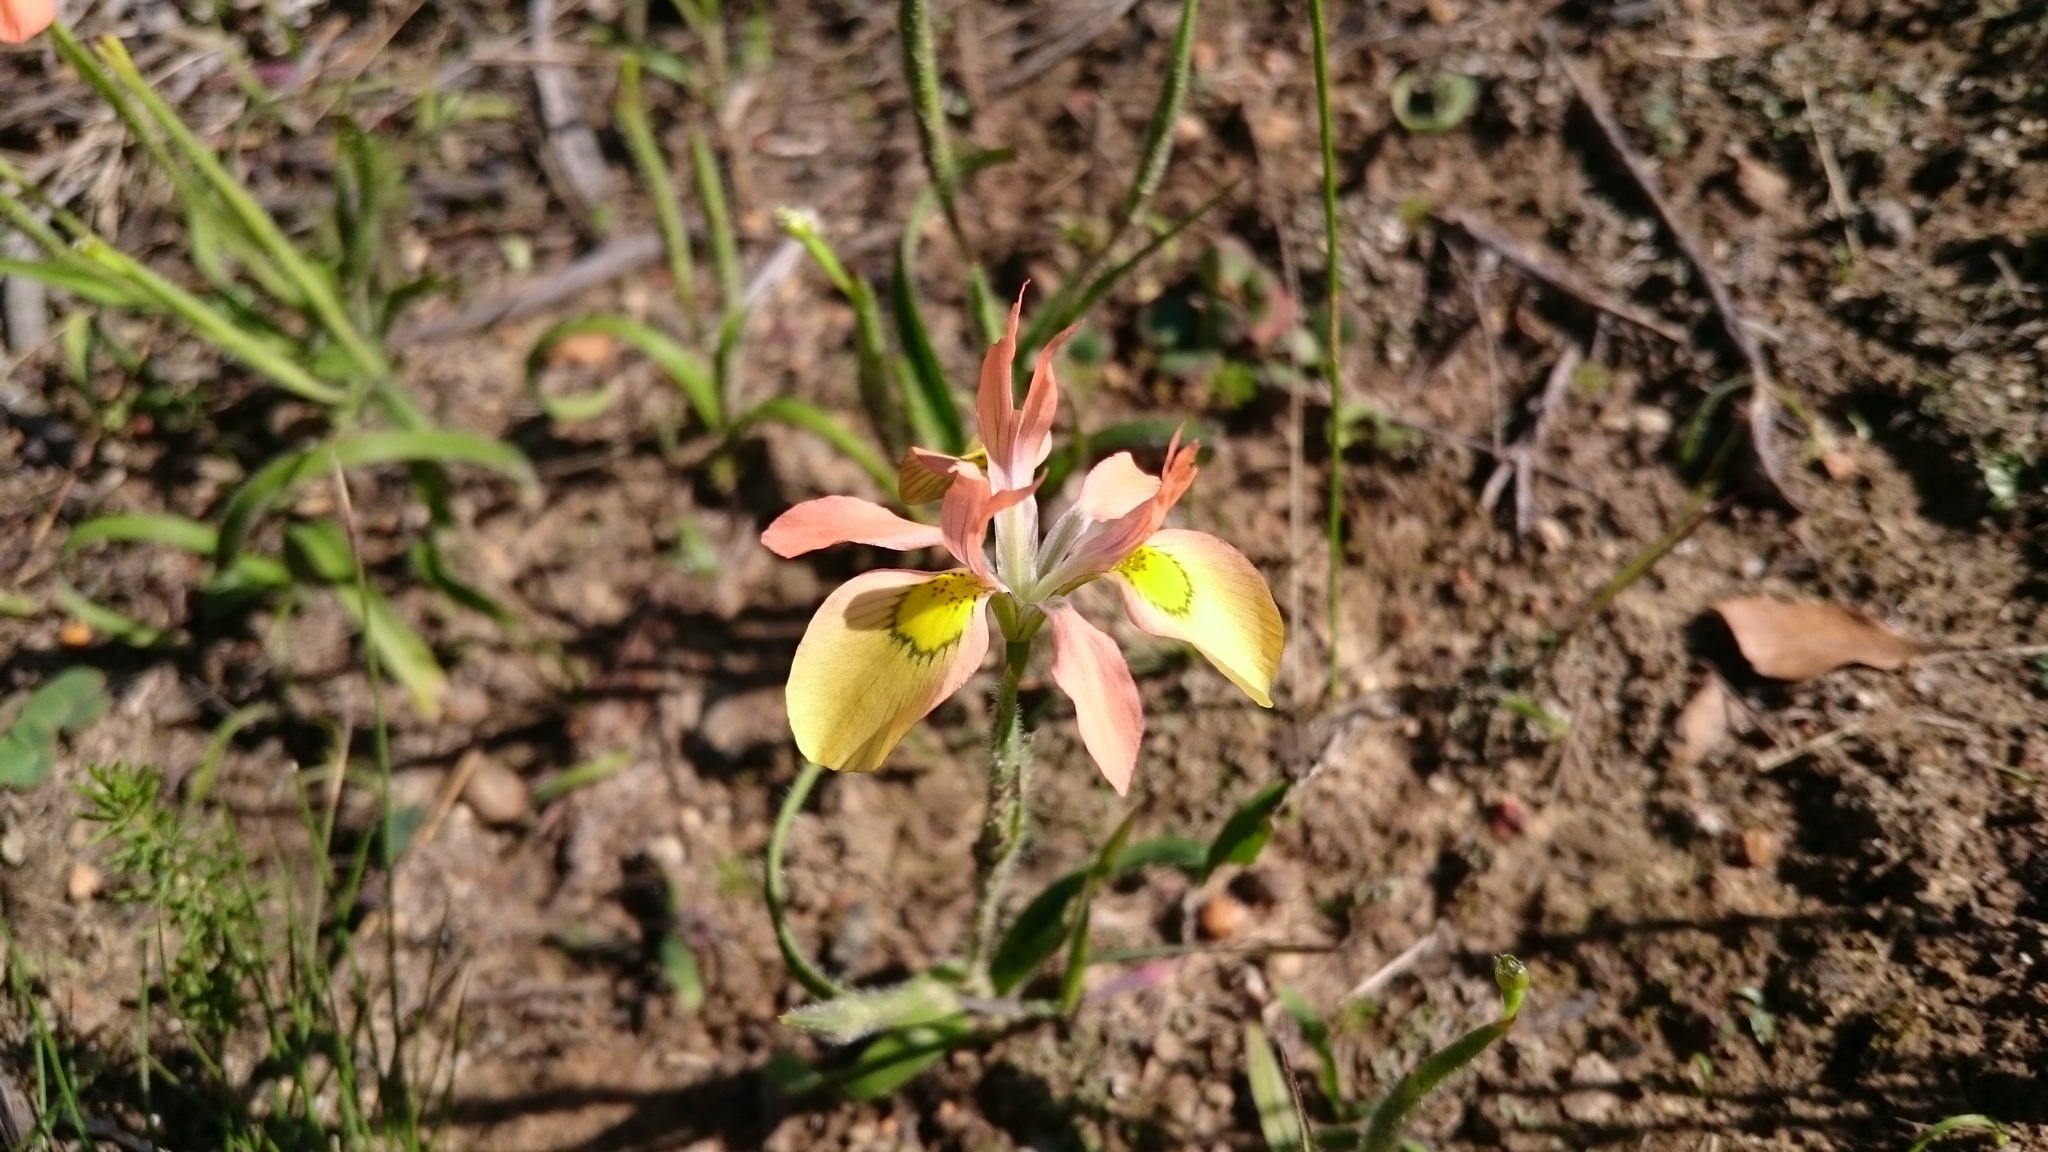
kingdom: Plantae
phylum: Tracheophyta
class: Liliopsida
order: Asparagales
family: Iridaceae
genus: Moraea
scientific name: Moraea papilionacea
